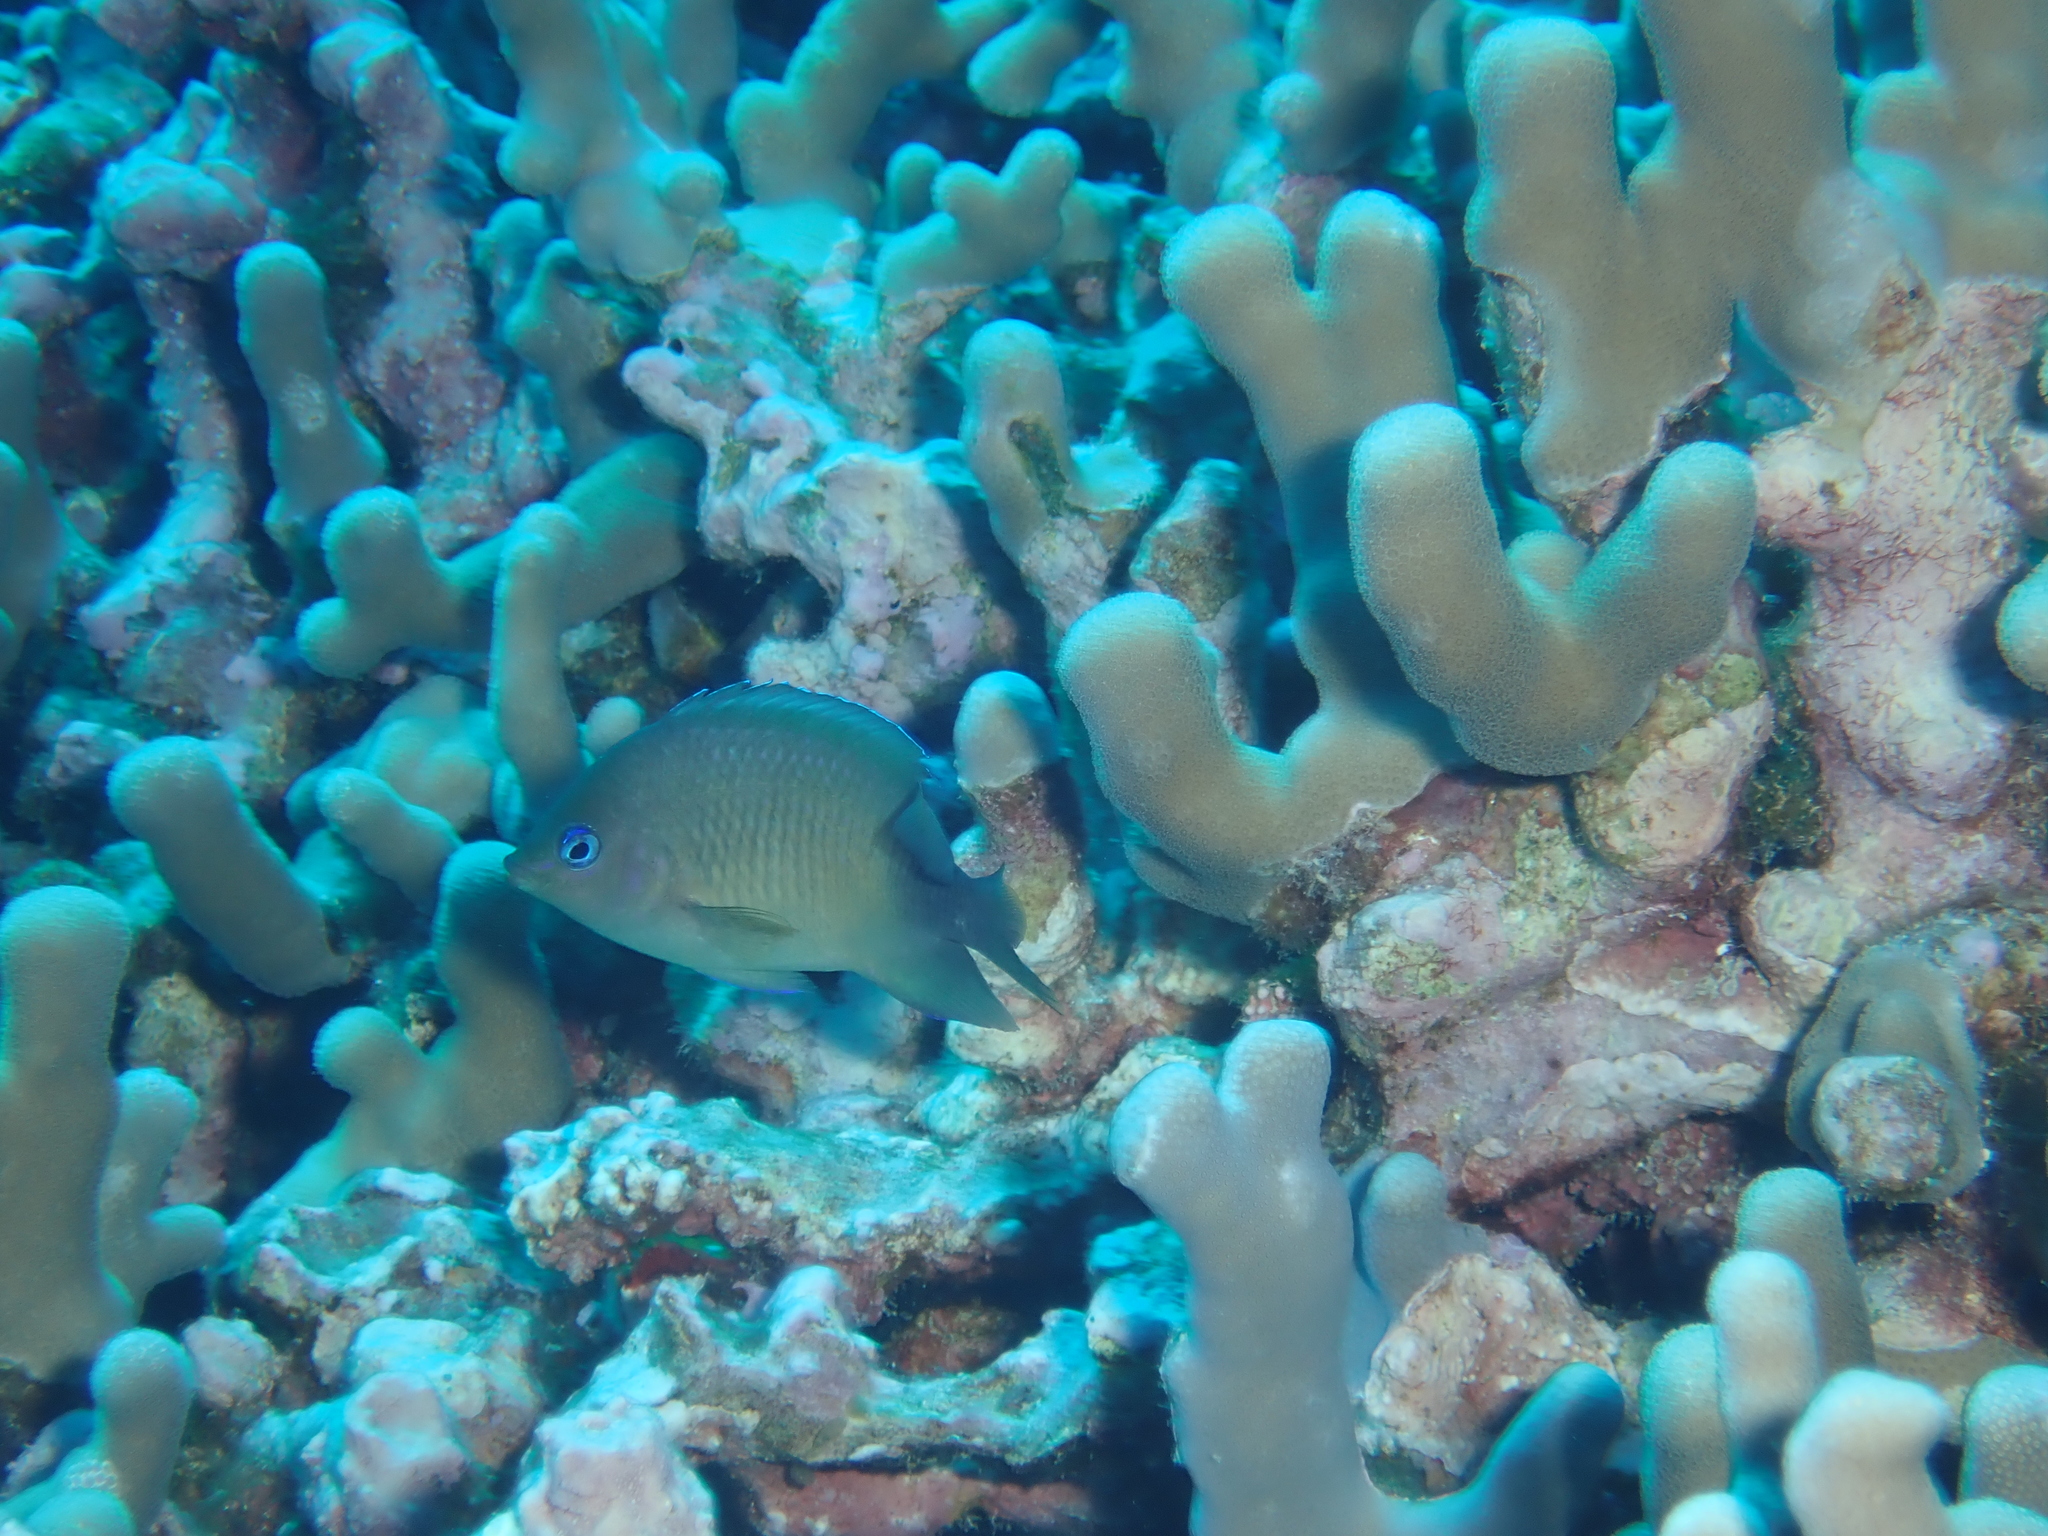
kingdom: Animalia
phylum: Chordata
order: Perciformes
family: Pomacentridae
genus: Plectroglyphidodon
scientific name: Plectroglyphidodon johnstonianus
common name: Johnston damsel
